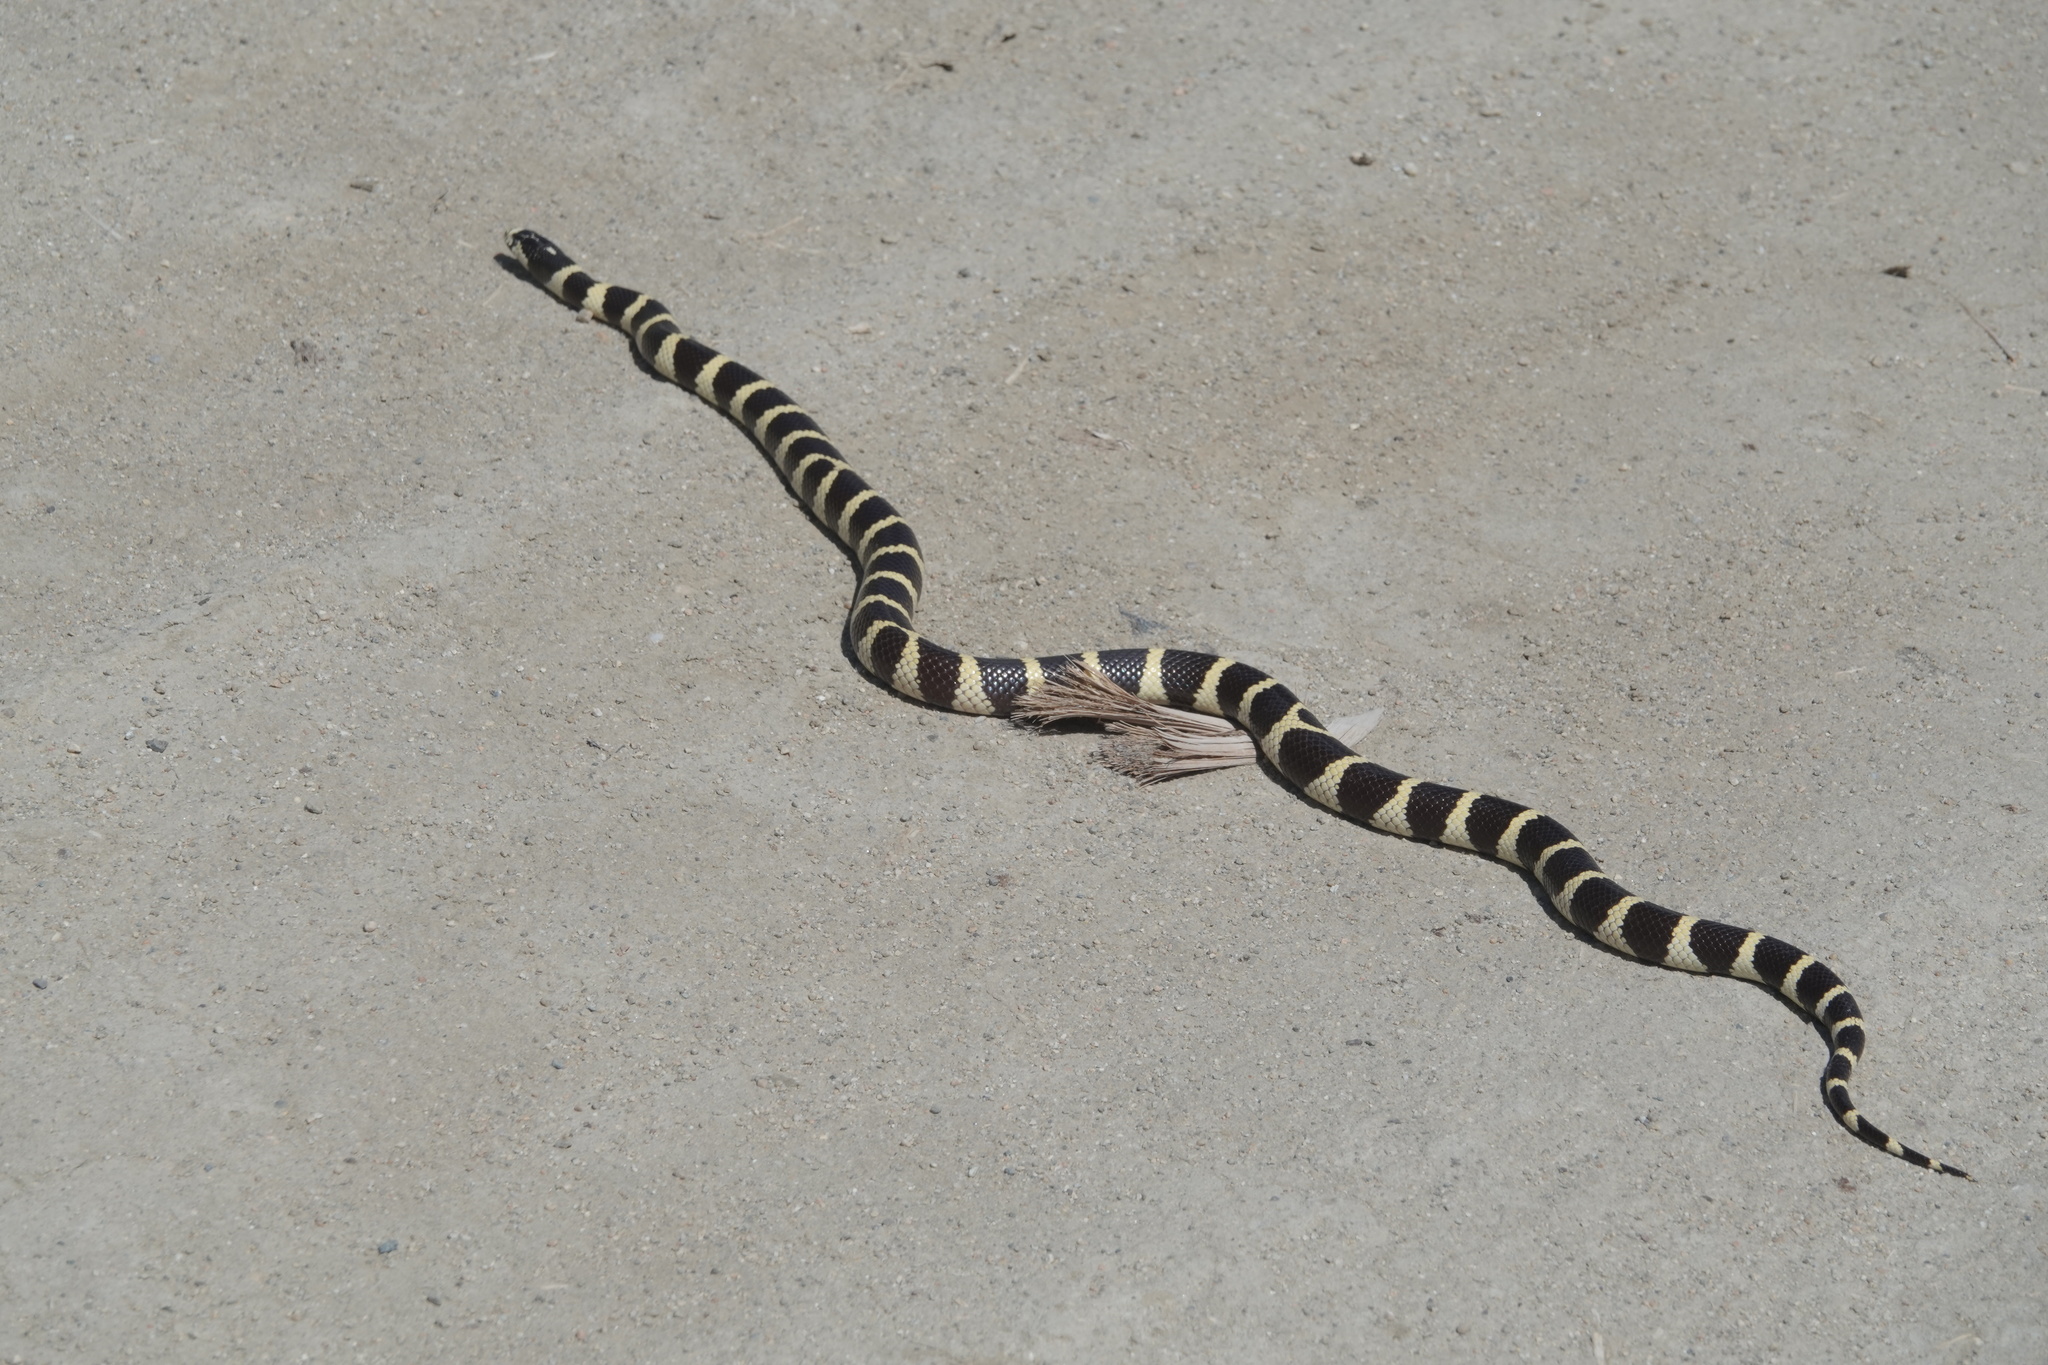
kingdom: Animalia
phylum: Chordata
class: Squamata
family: Colubridae
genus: Lampropeltis
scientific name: Lampropeltis californiae
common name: California kingsnake
